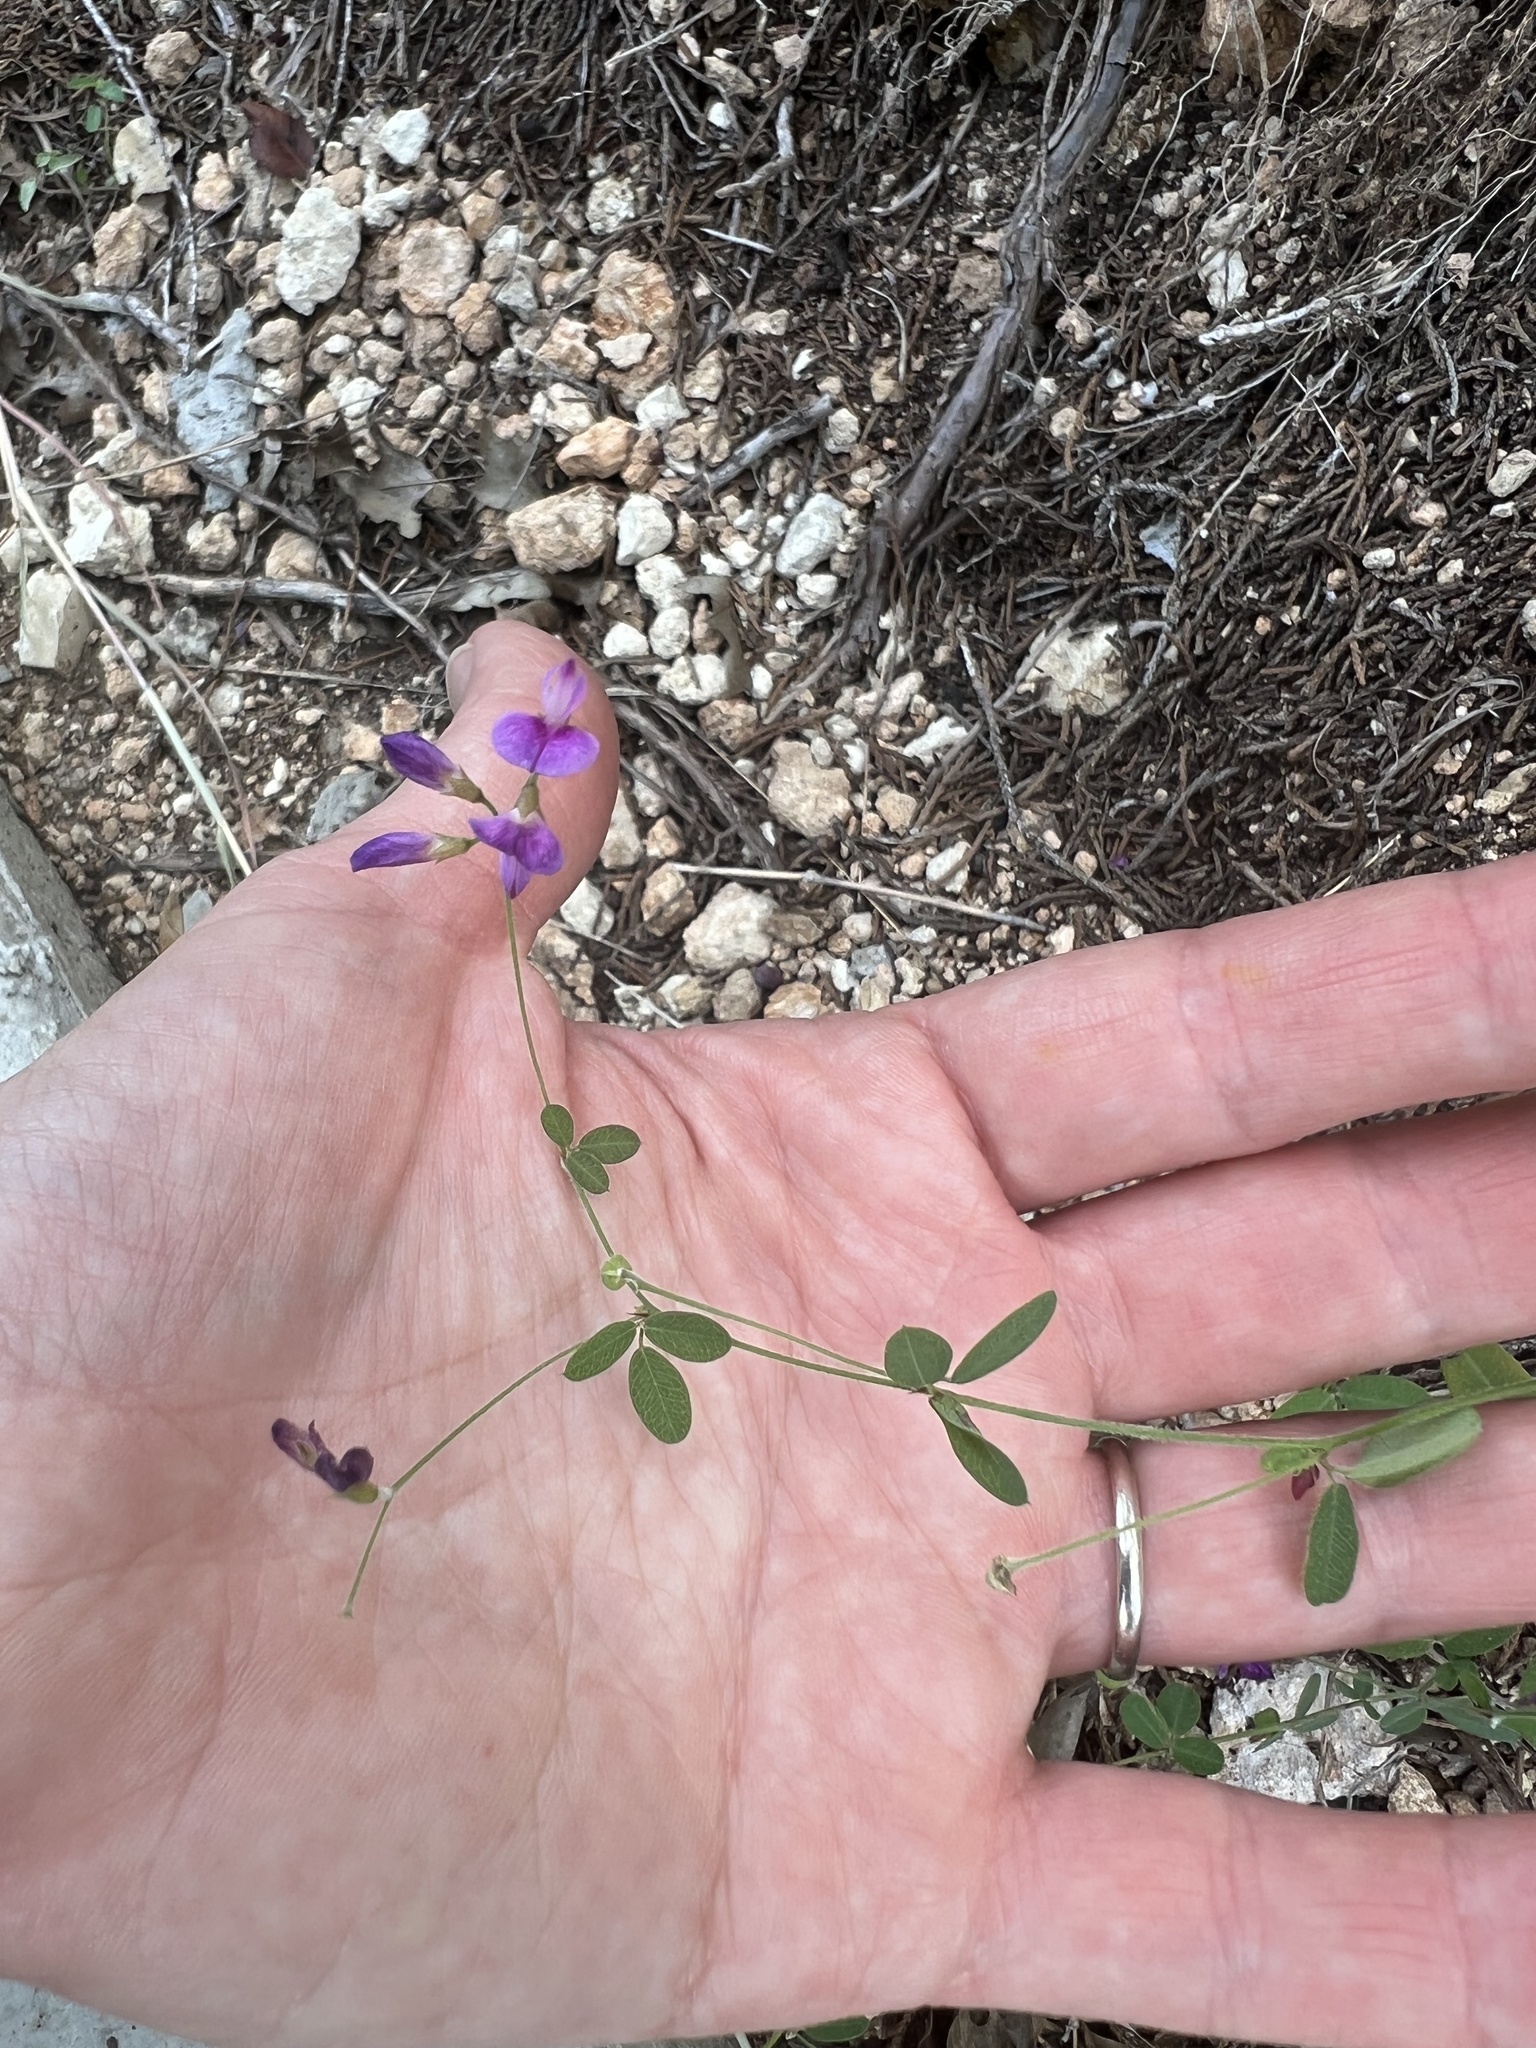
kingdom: Plantae
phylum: Tracheophyta
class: Magnoliopsida
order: Fabales
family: Fabaceae
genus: Lespedeza
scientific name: Lespedeza texana
